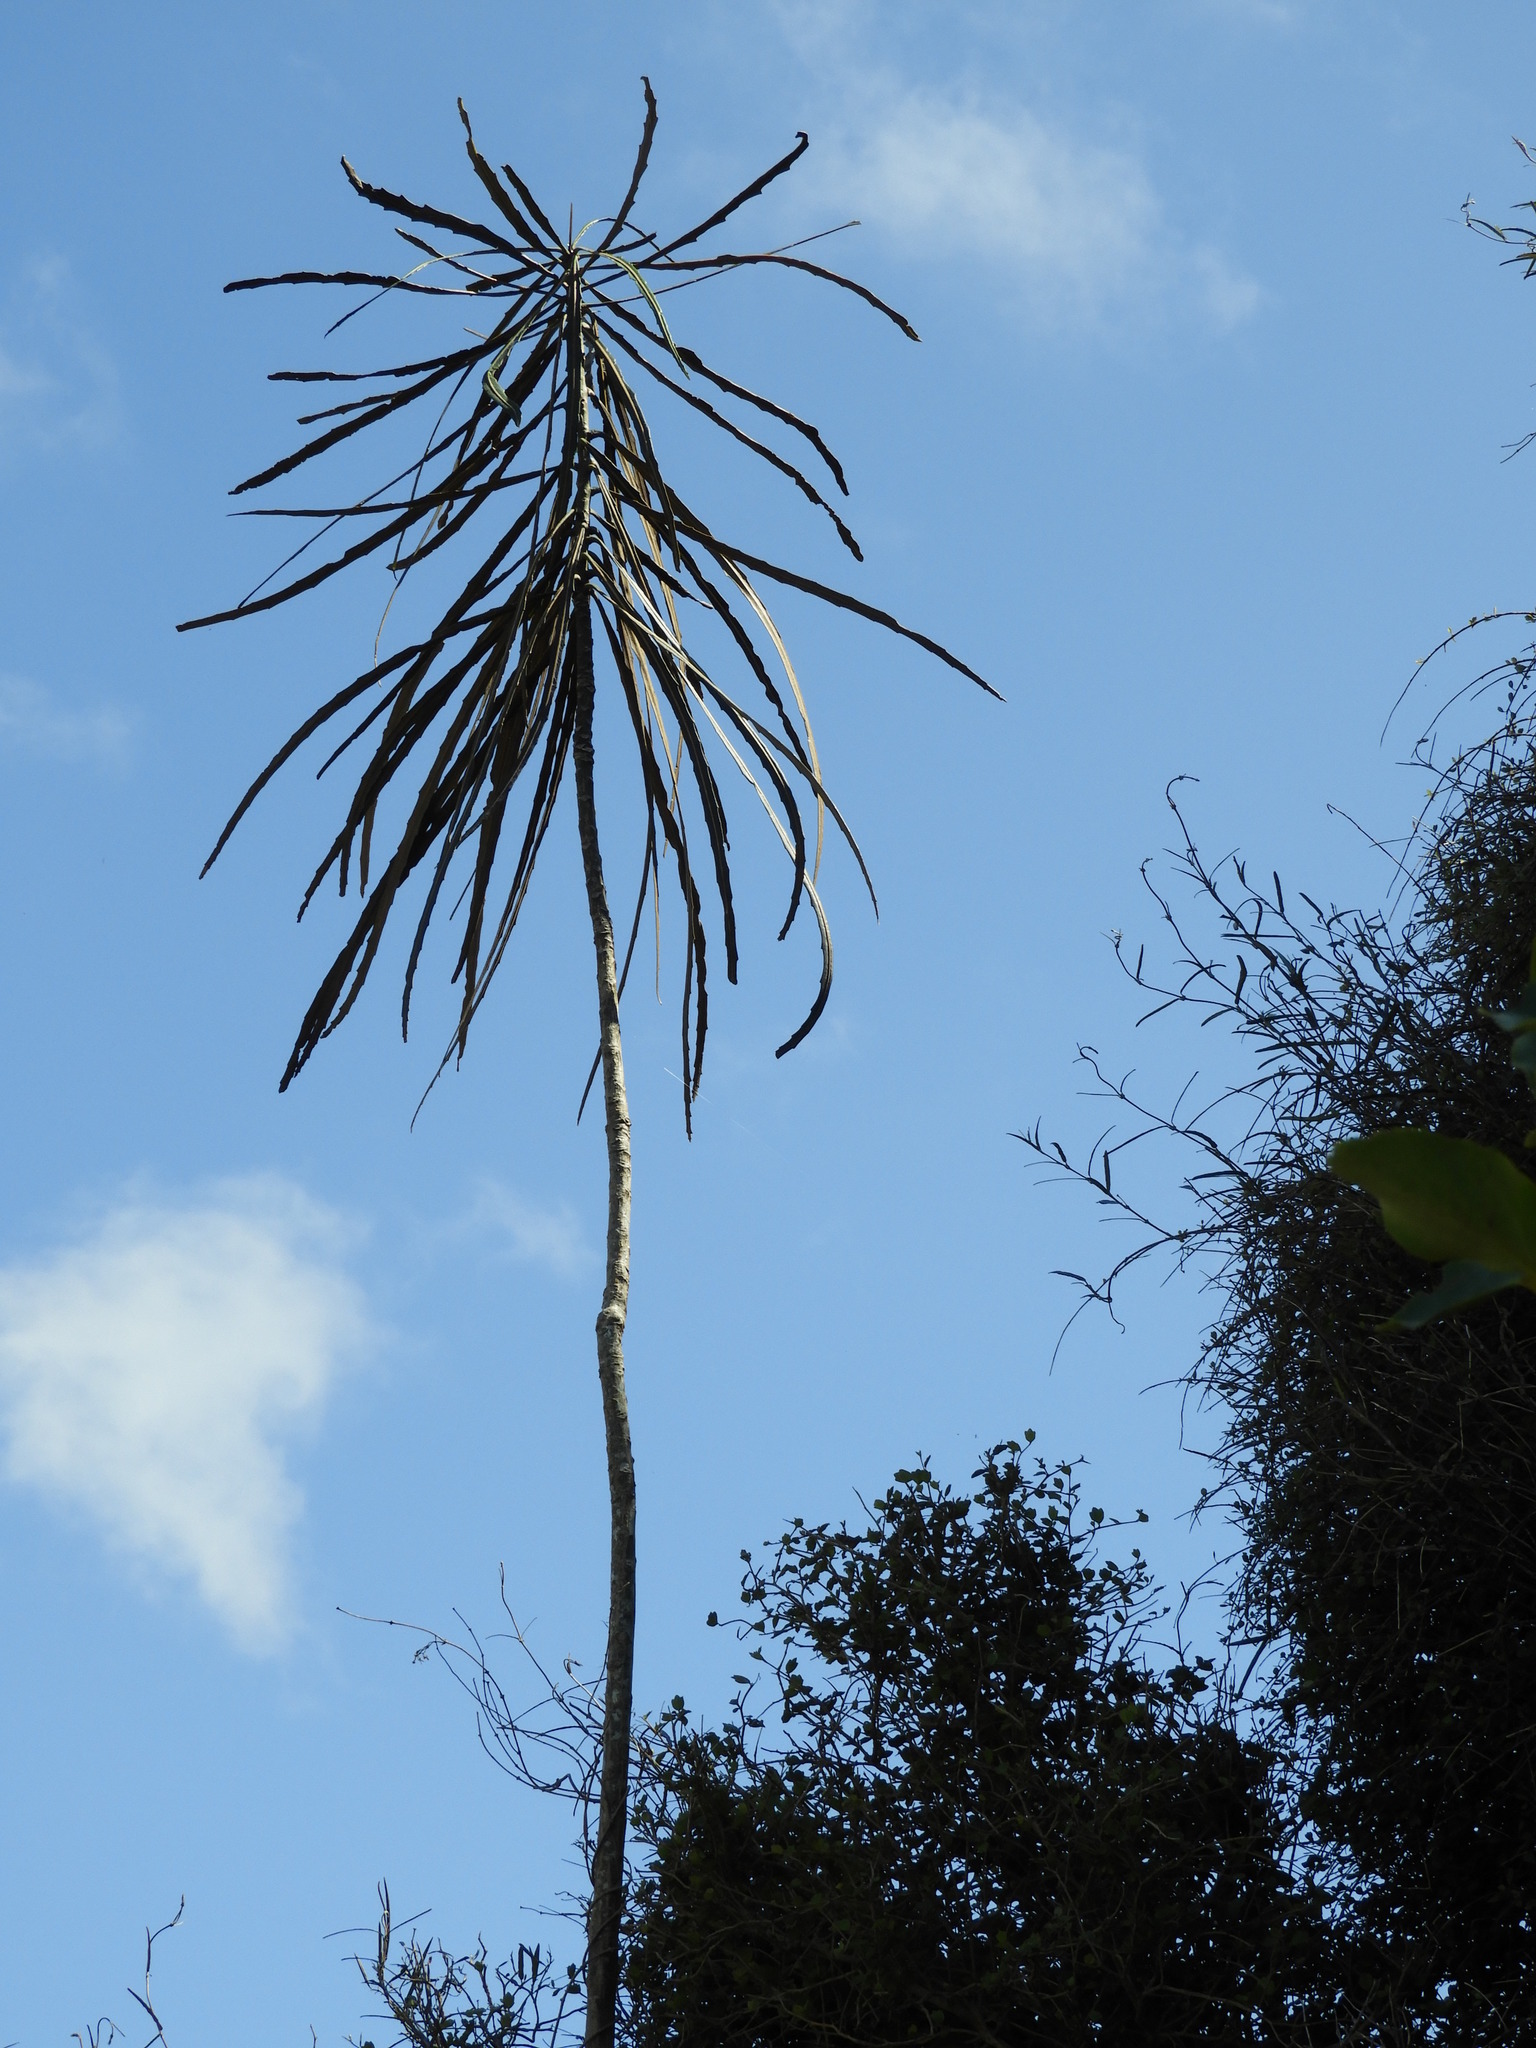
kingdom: Plantae
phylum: Tracheophyta
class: Magnoliopsida
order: Apiales
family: Araliaceae
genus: Pseudopanax
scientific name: Pseudopanax crassifolius
